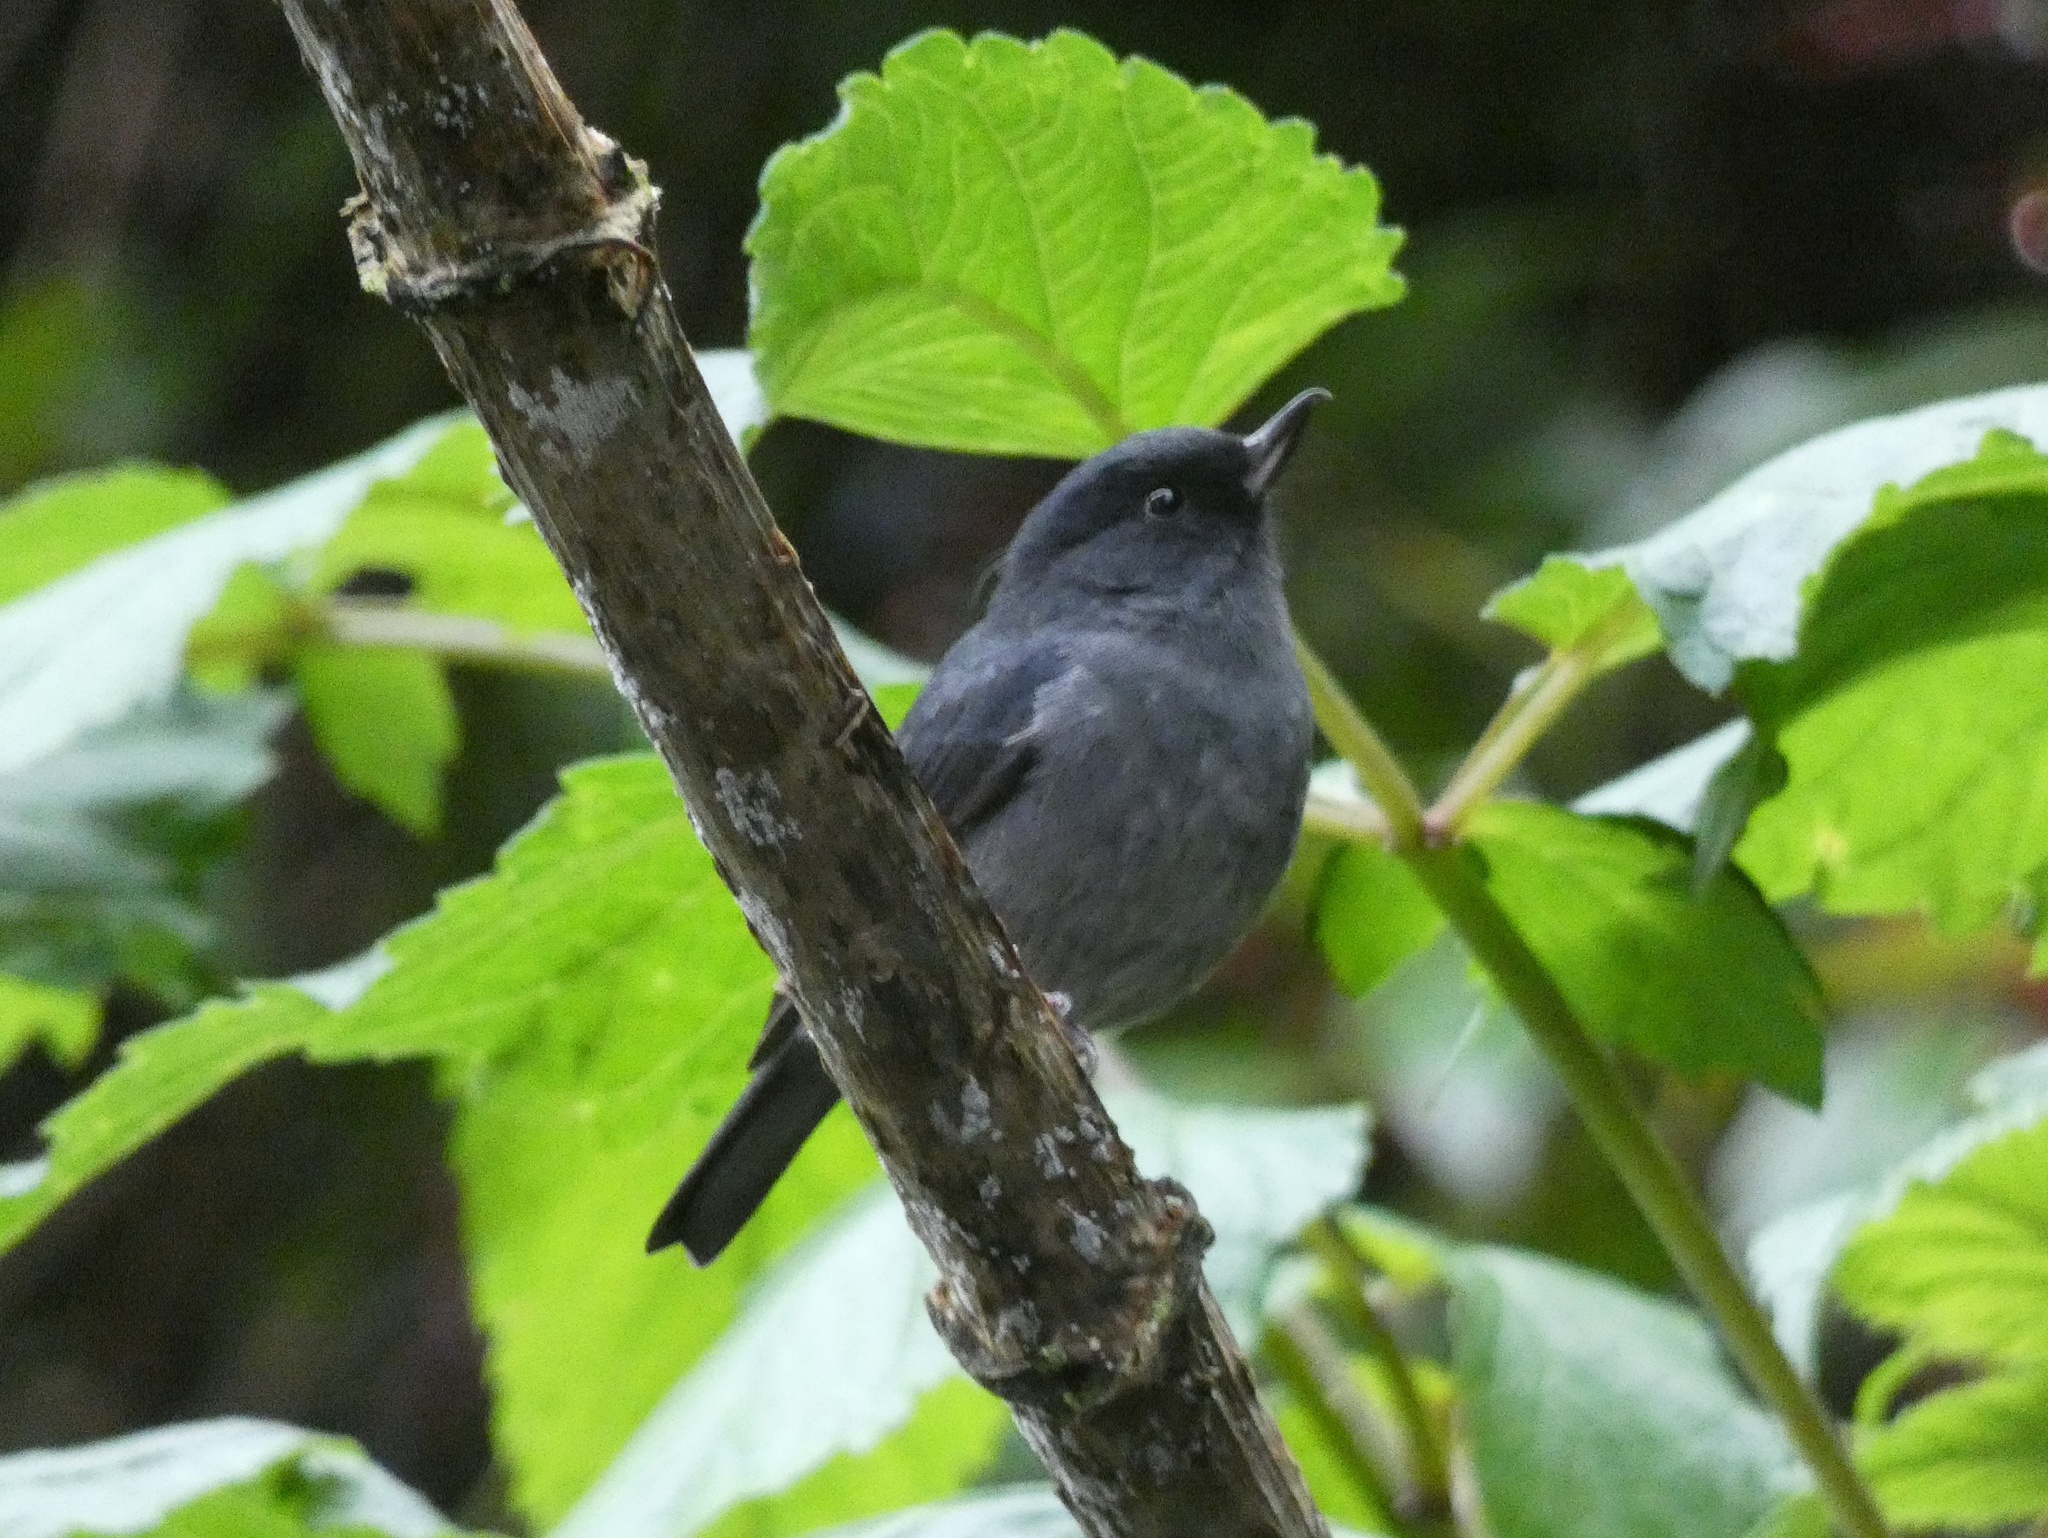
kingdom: Animalia
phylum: Chordata
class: Aves
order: Passeriformes
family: Thraupidae
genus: Diglossa
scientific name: Diglossa plumbea
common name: Slaty flowerpiercer
